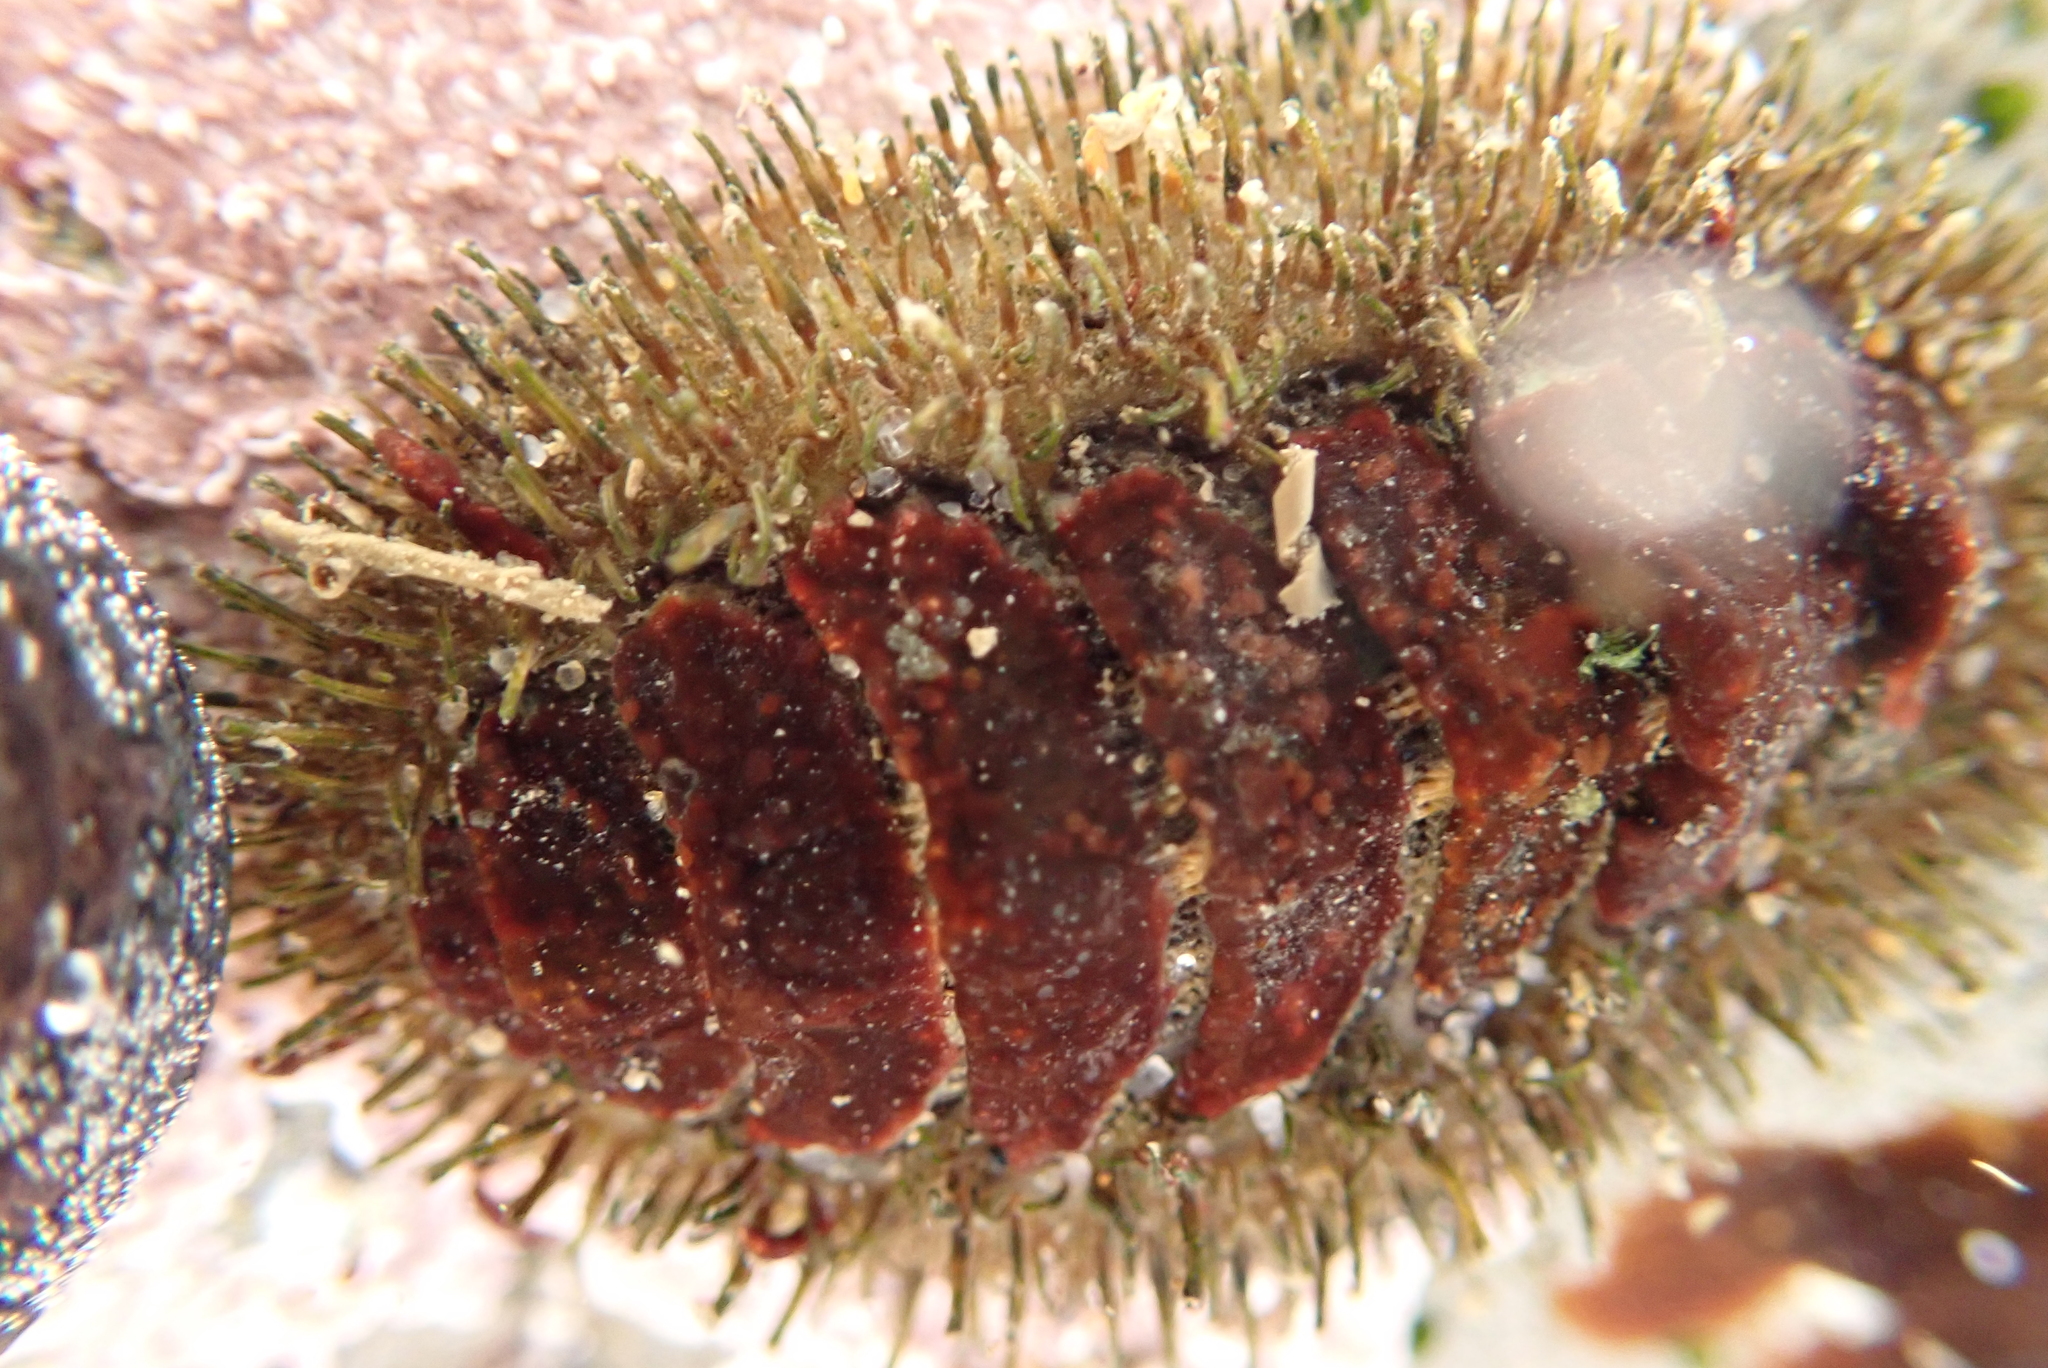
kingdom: Animalia
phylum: Mollusca
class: Polyplacophora
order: Chitonida
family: Mopaliidae
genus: Mopalia
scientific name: Mopalia muscosa
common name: Mossy chiton
